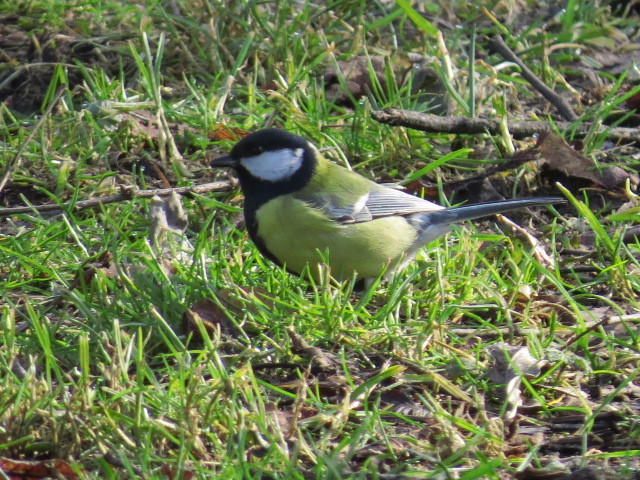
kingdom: Animalia
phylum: Chordata
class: Aves
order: Passeriformes
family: Paridae
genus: Parus
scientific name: Parus major
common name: Great tit
